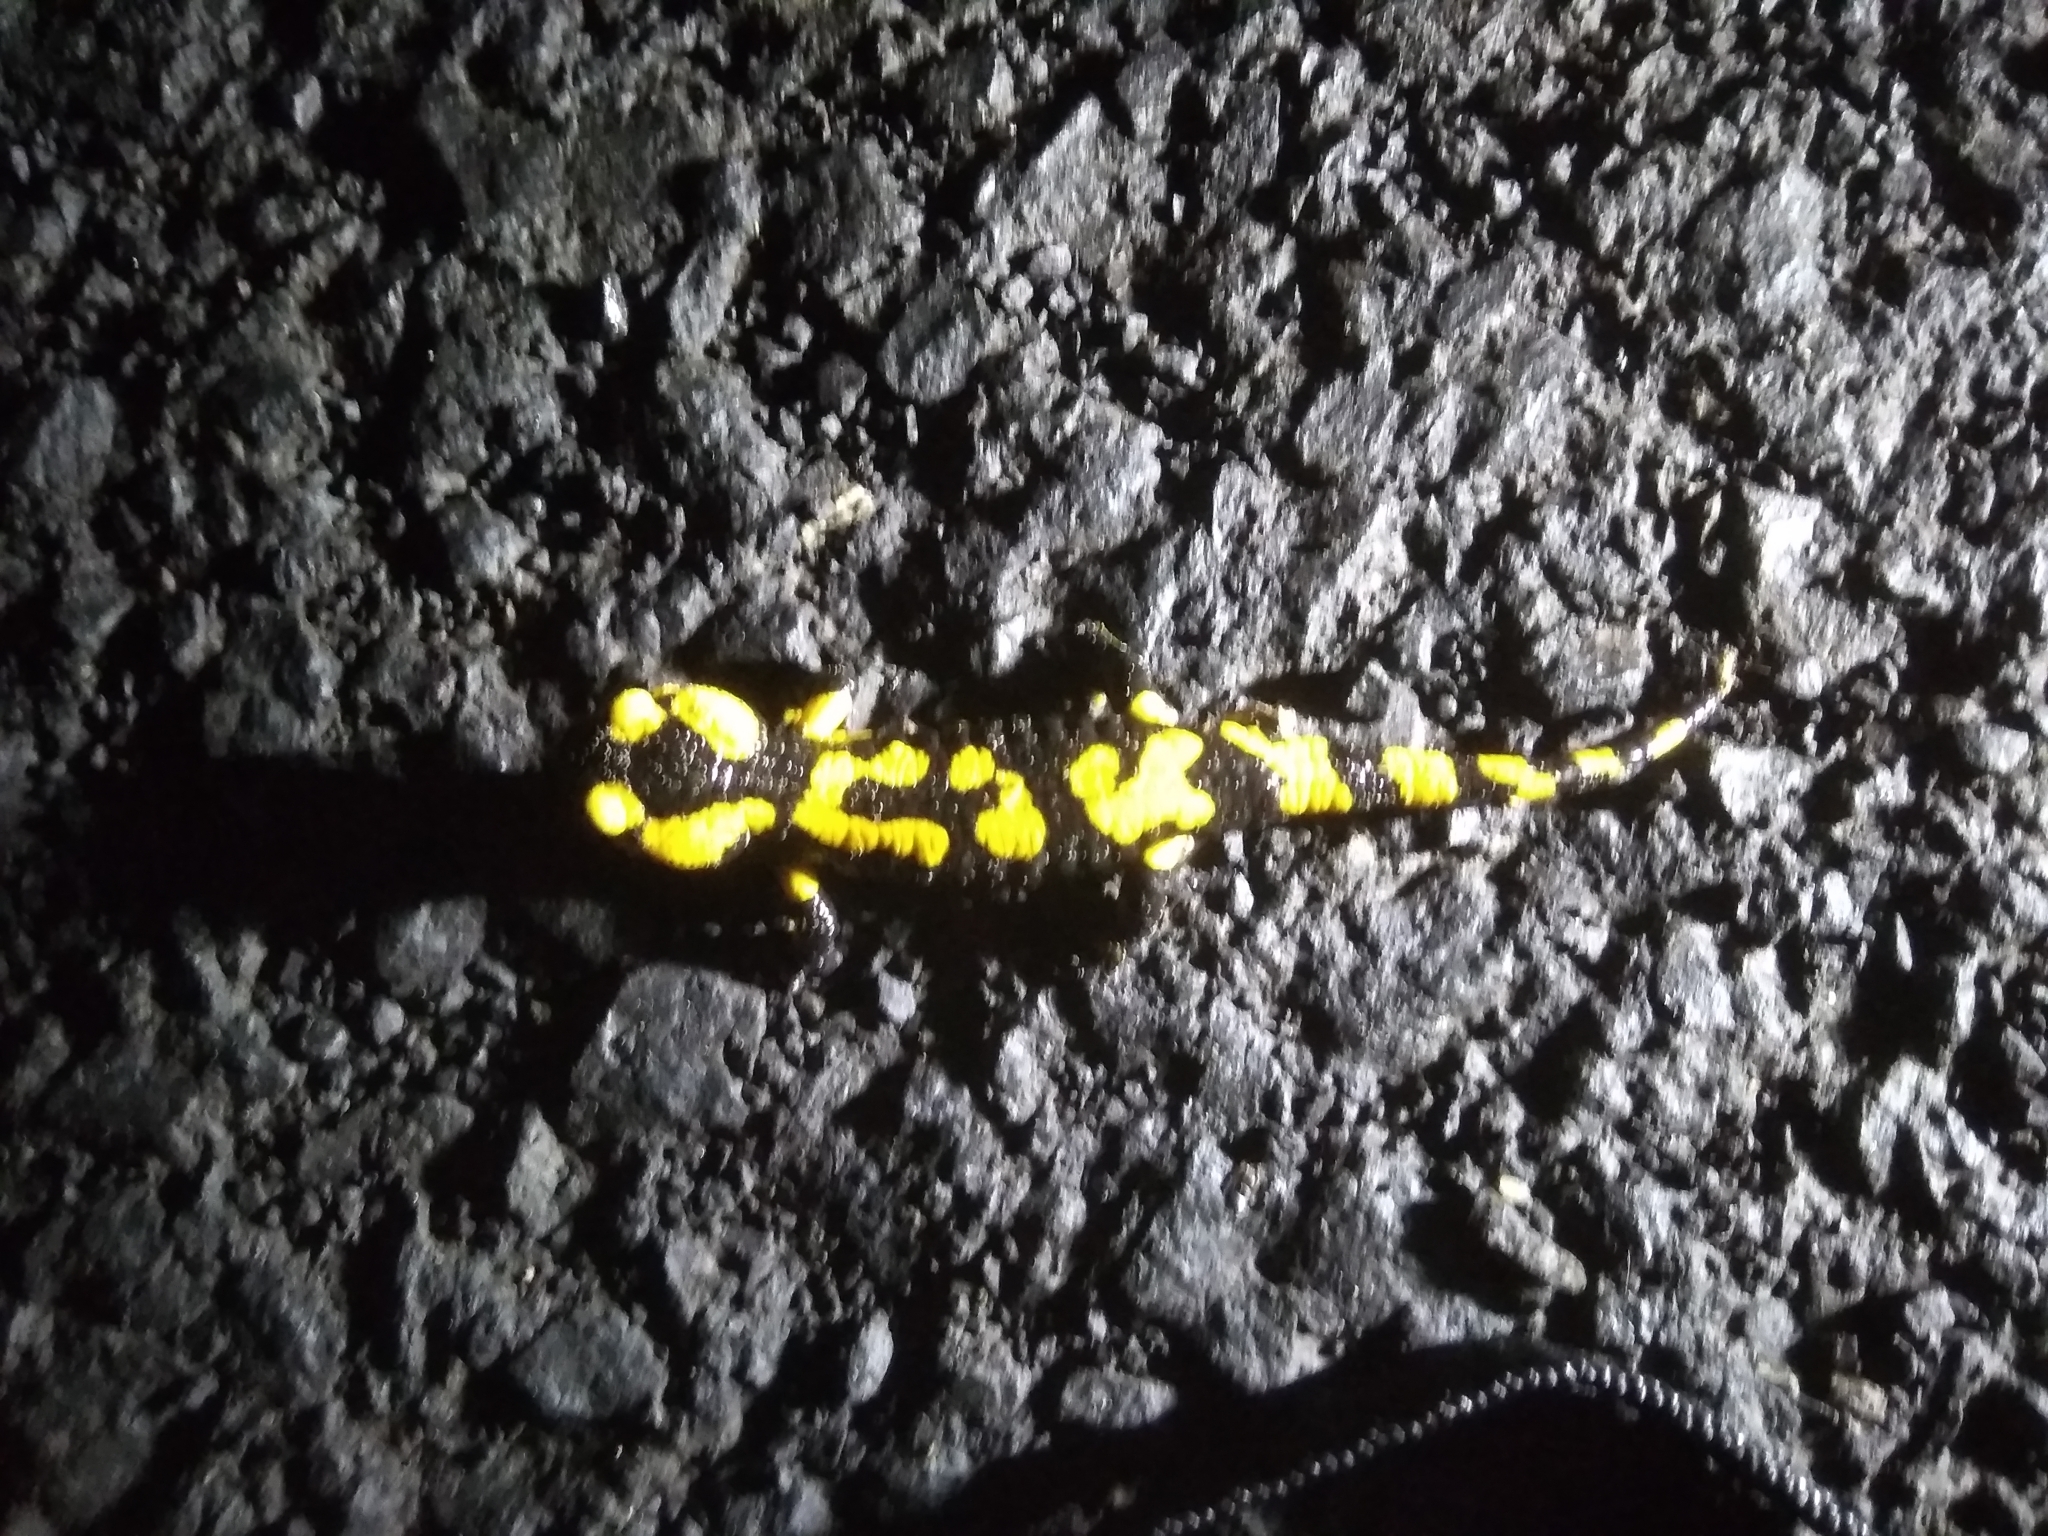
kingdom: Animalia
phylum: Chordata
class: Amphibia
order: Caudata
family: Salamandridae
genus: Salamandra
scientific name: Salamandra salamandra
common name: Fire salamander
